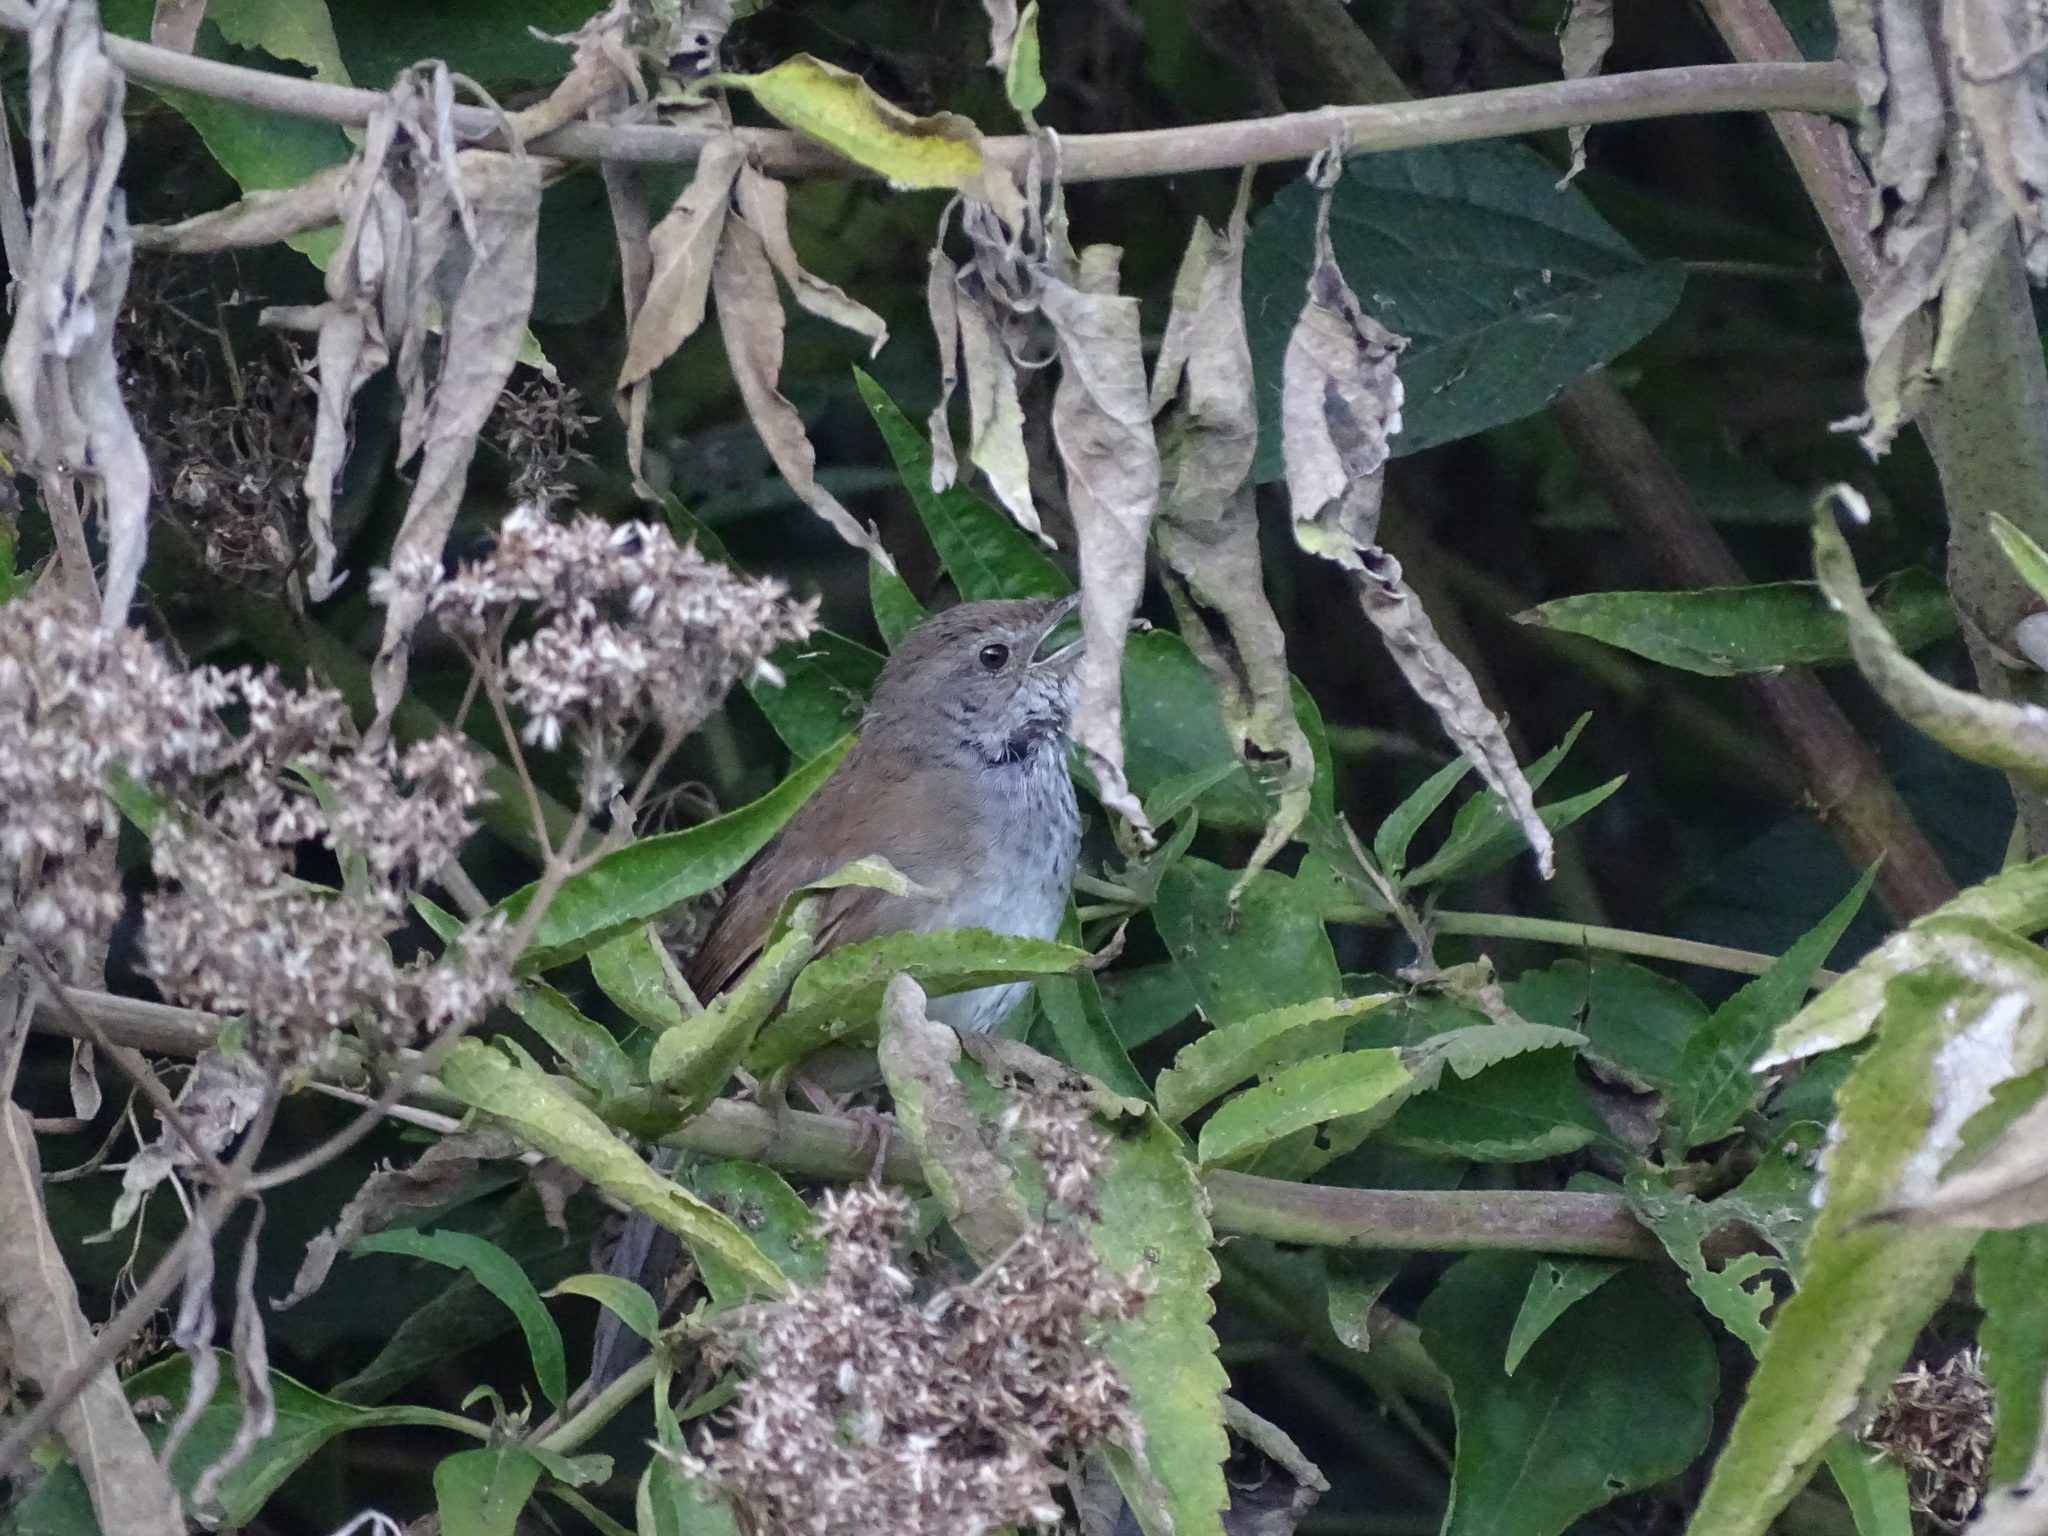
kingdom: Animalia
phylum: Chordata
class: Aves
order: Passeriformes
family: Locustellidae
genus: Locustella
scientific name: Locustella montis
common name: Javan bush warbler
